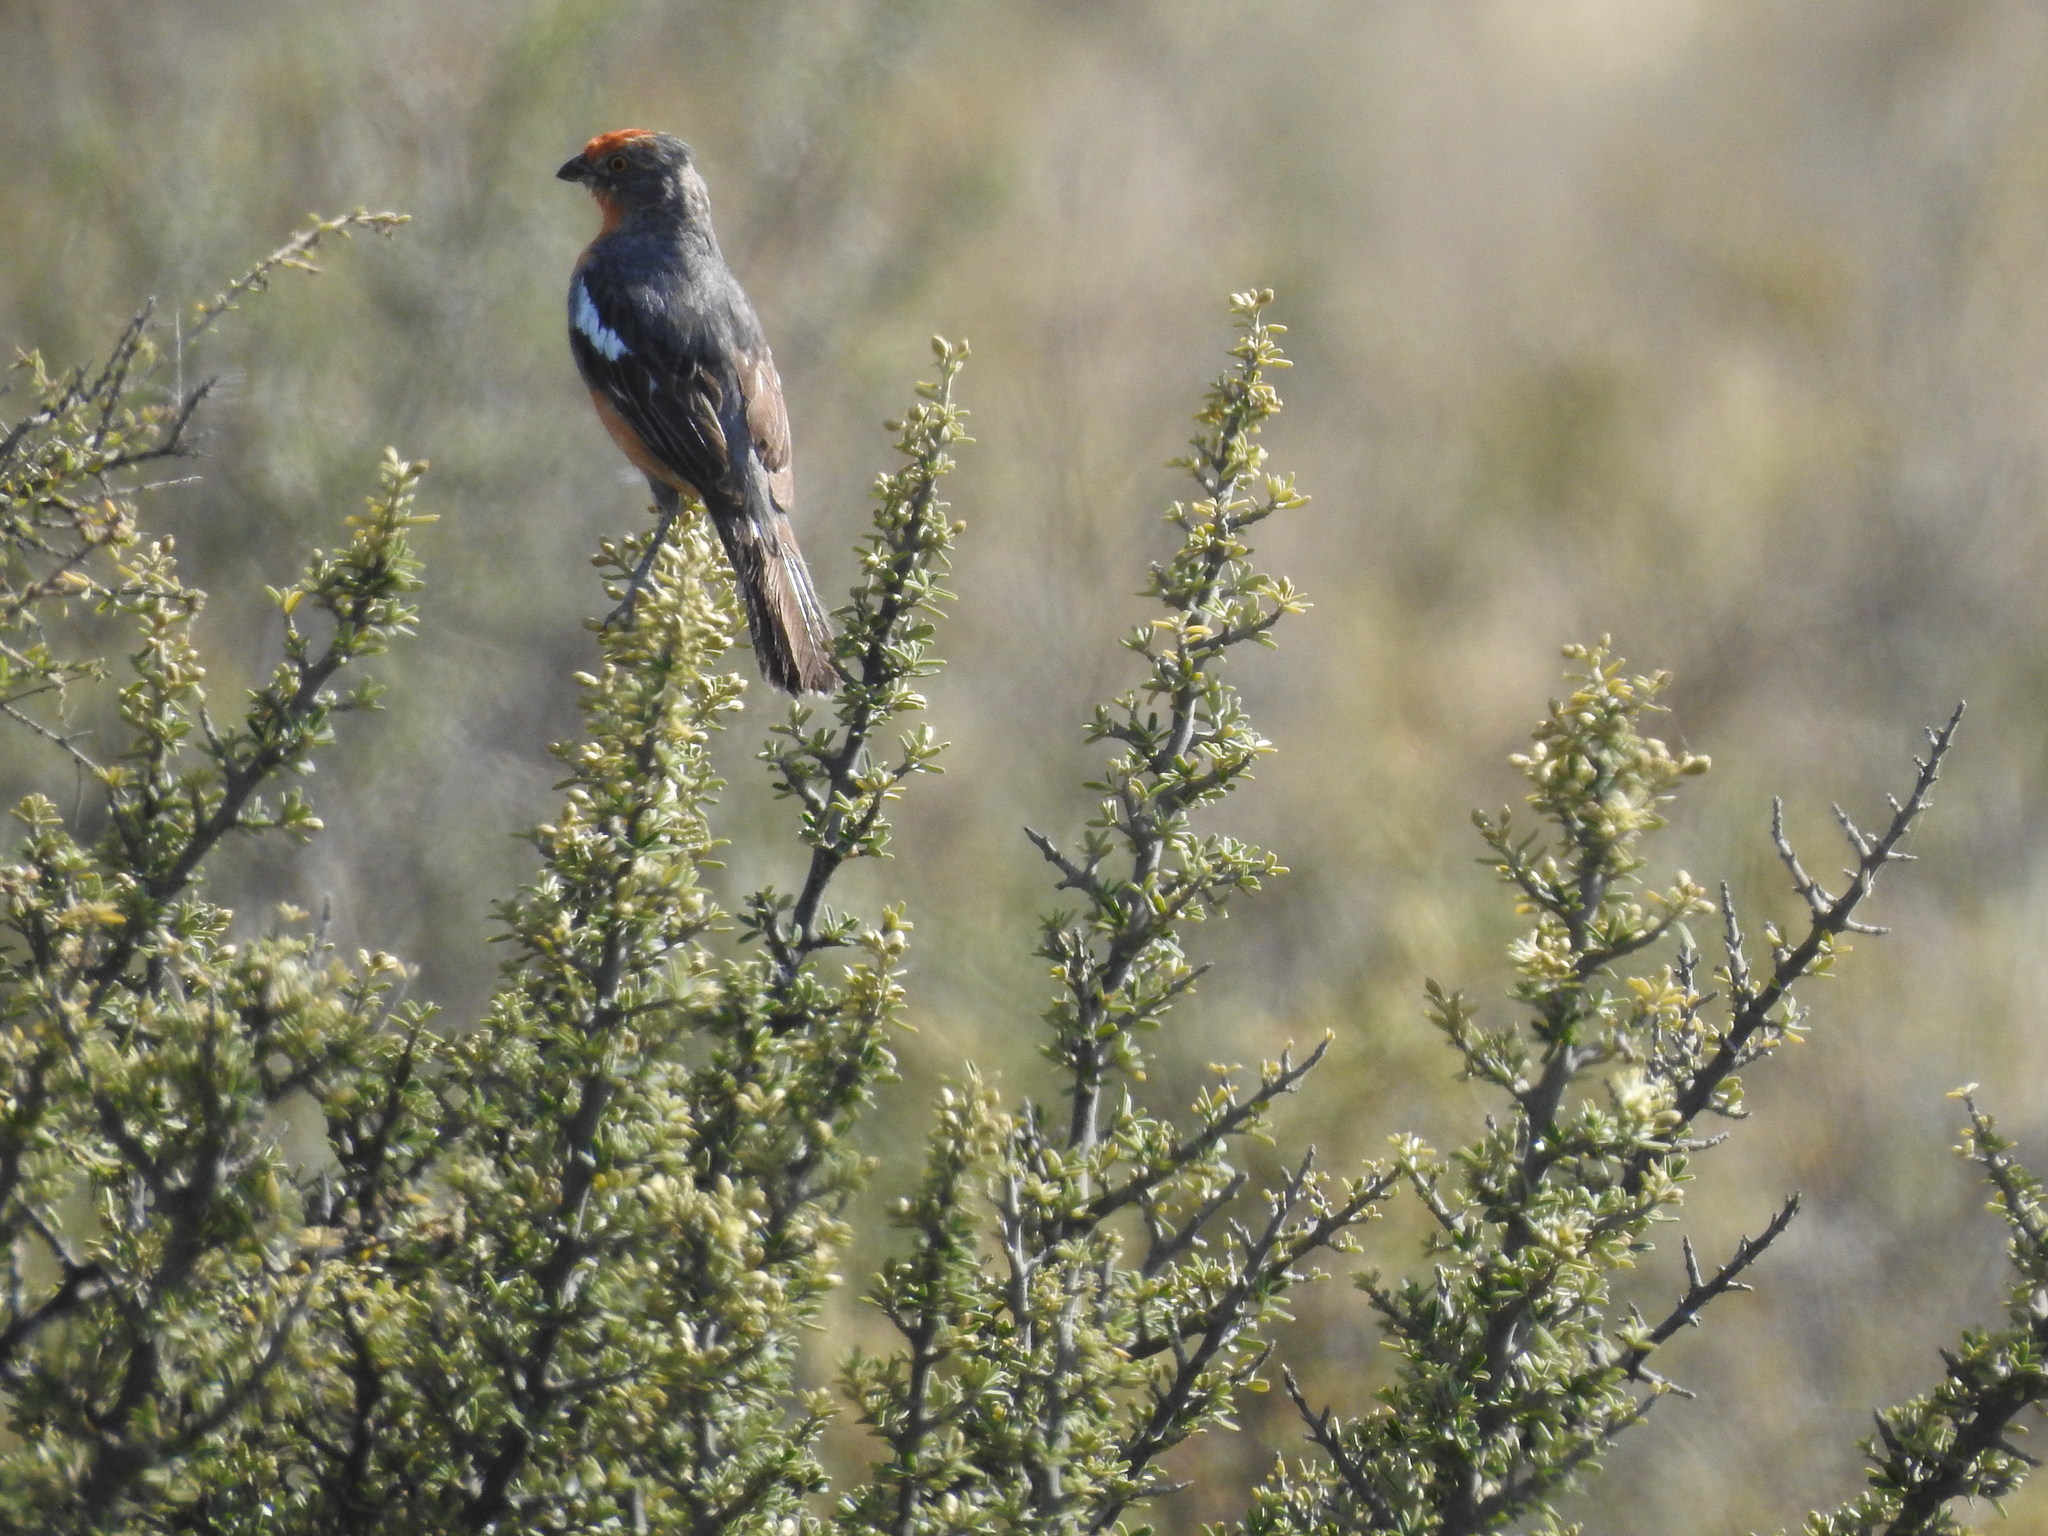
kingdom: Animalia
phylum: Chordata
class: Aves
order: Passeriformes
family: Cotingidae
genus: Phytotoma
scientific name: Phytotoma rutila
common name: White-tipped plantcutter
